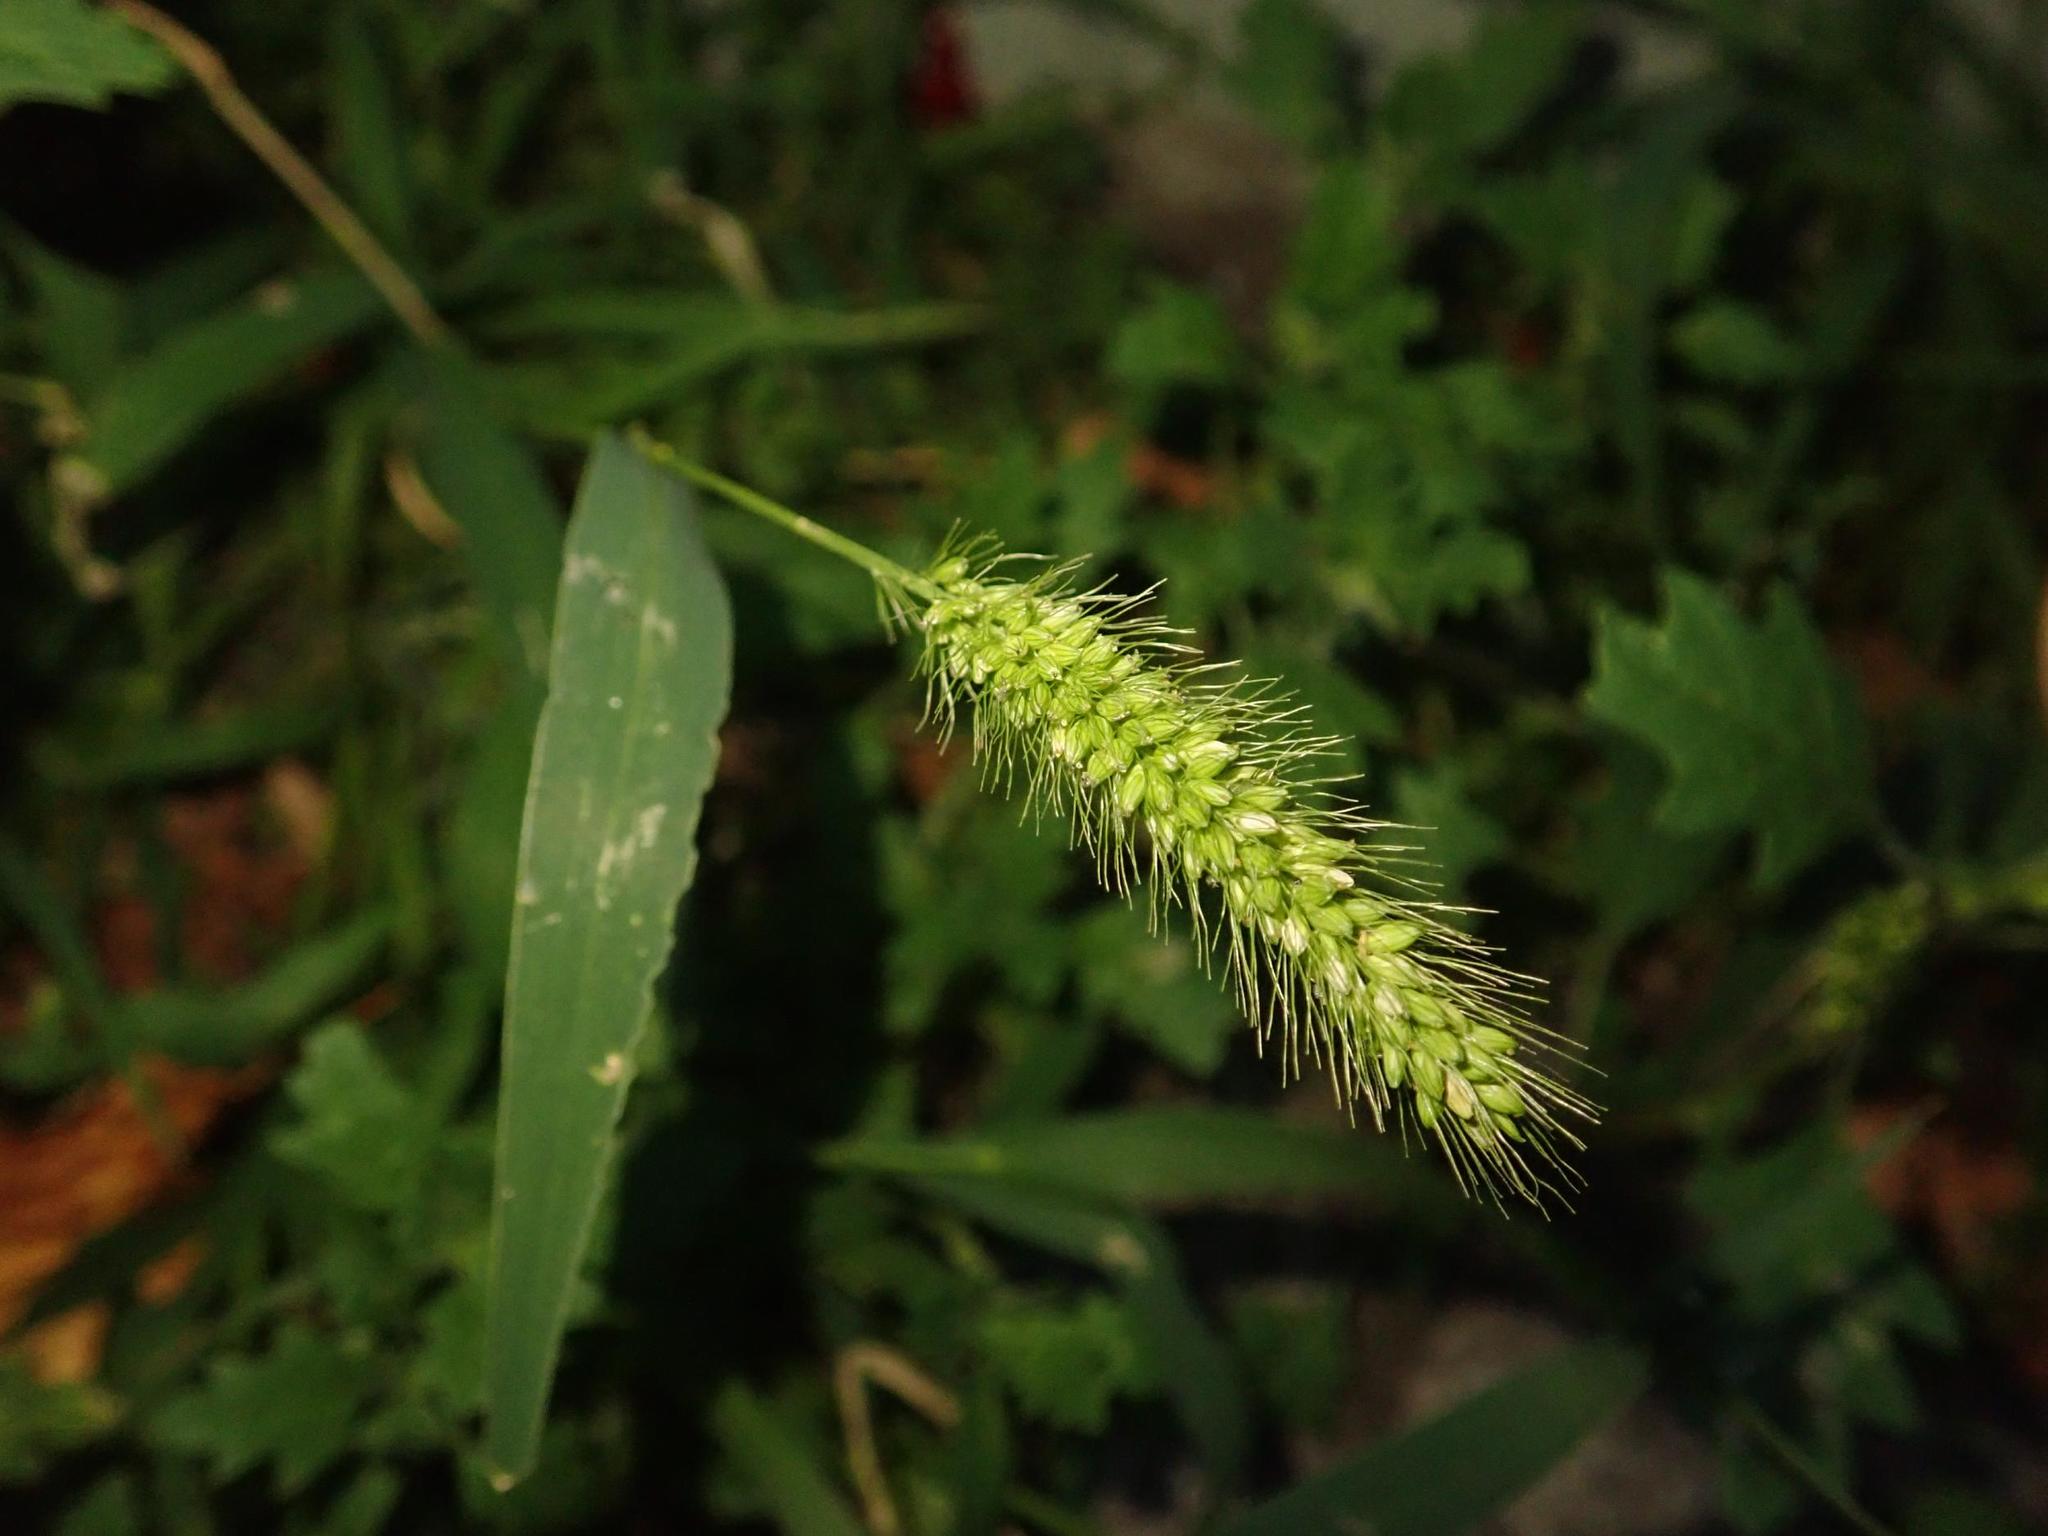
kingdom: Plantae
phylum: Tracheophyta
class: Liliopsida
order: Poales
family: Poaceae
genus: Setaria
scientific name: Setaria viridis
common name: Green bristlegrass
